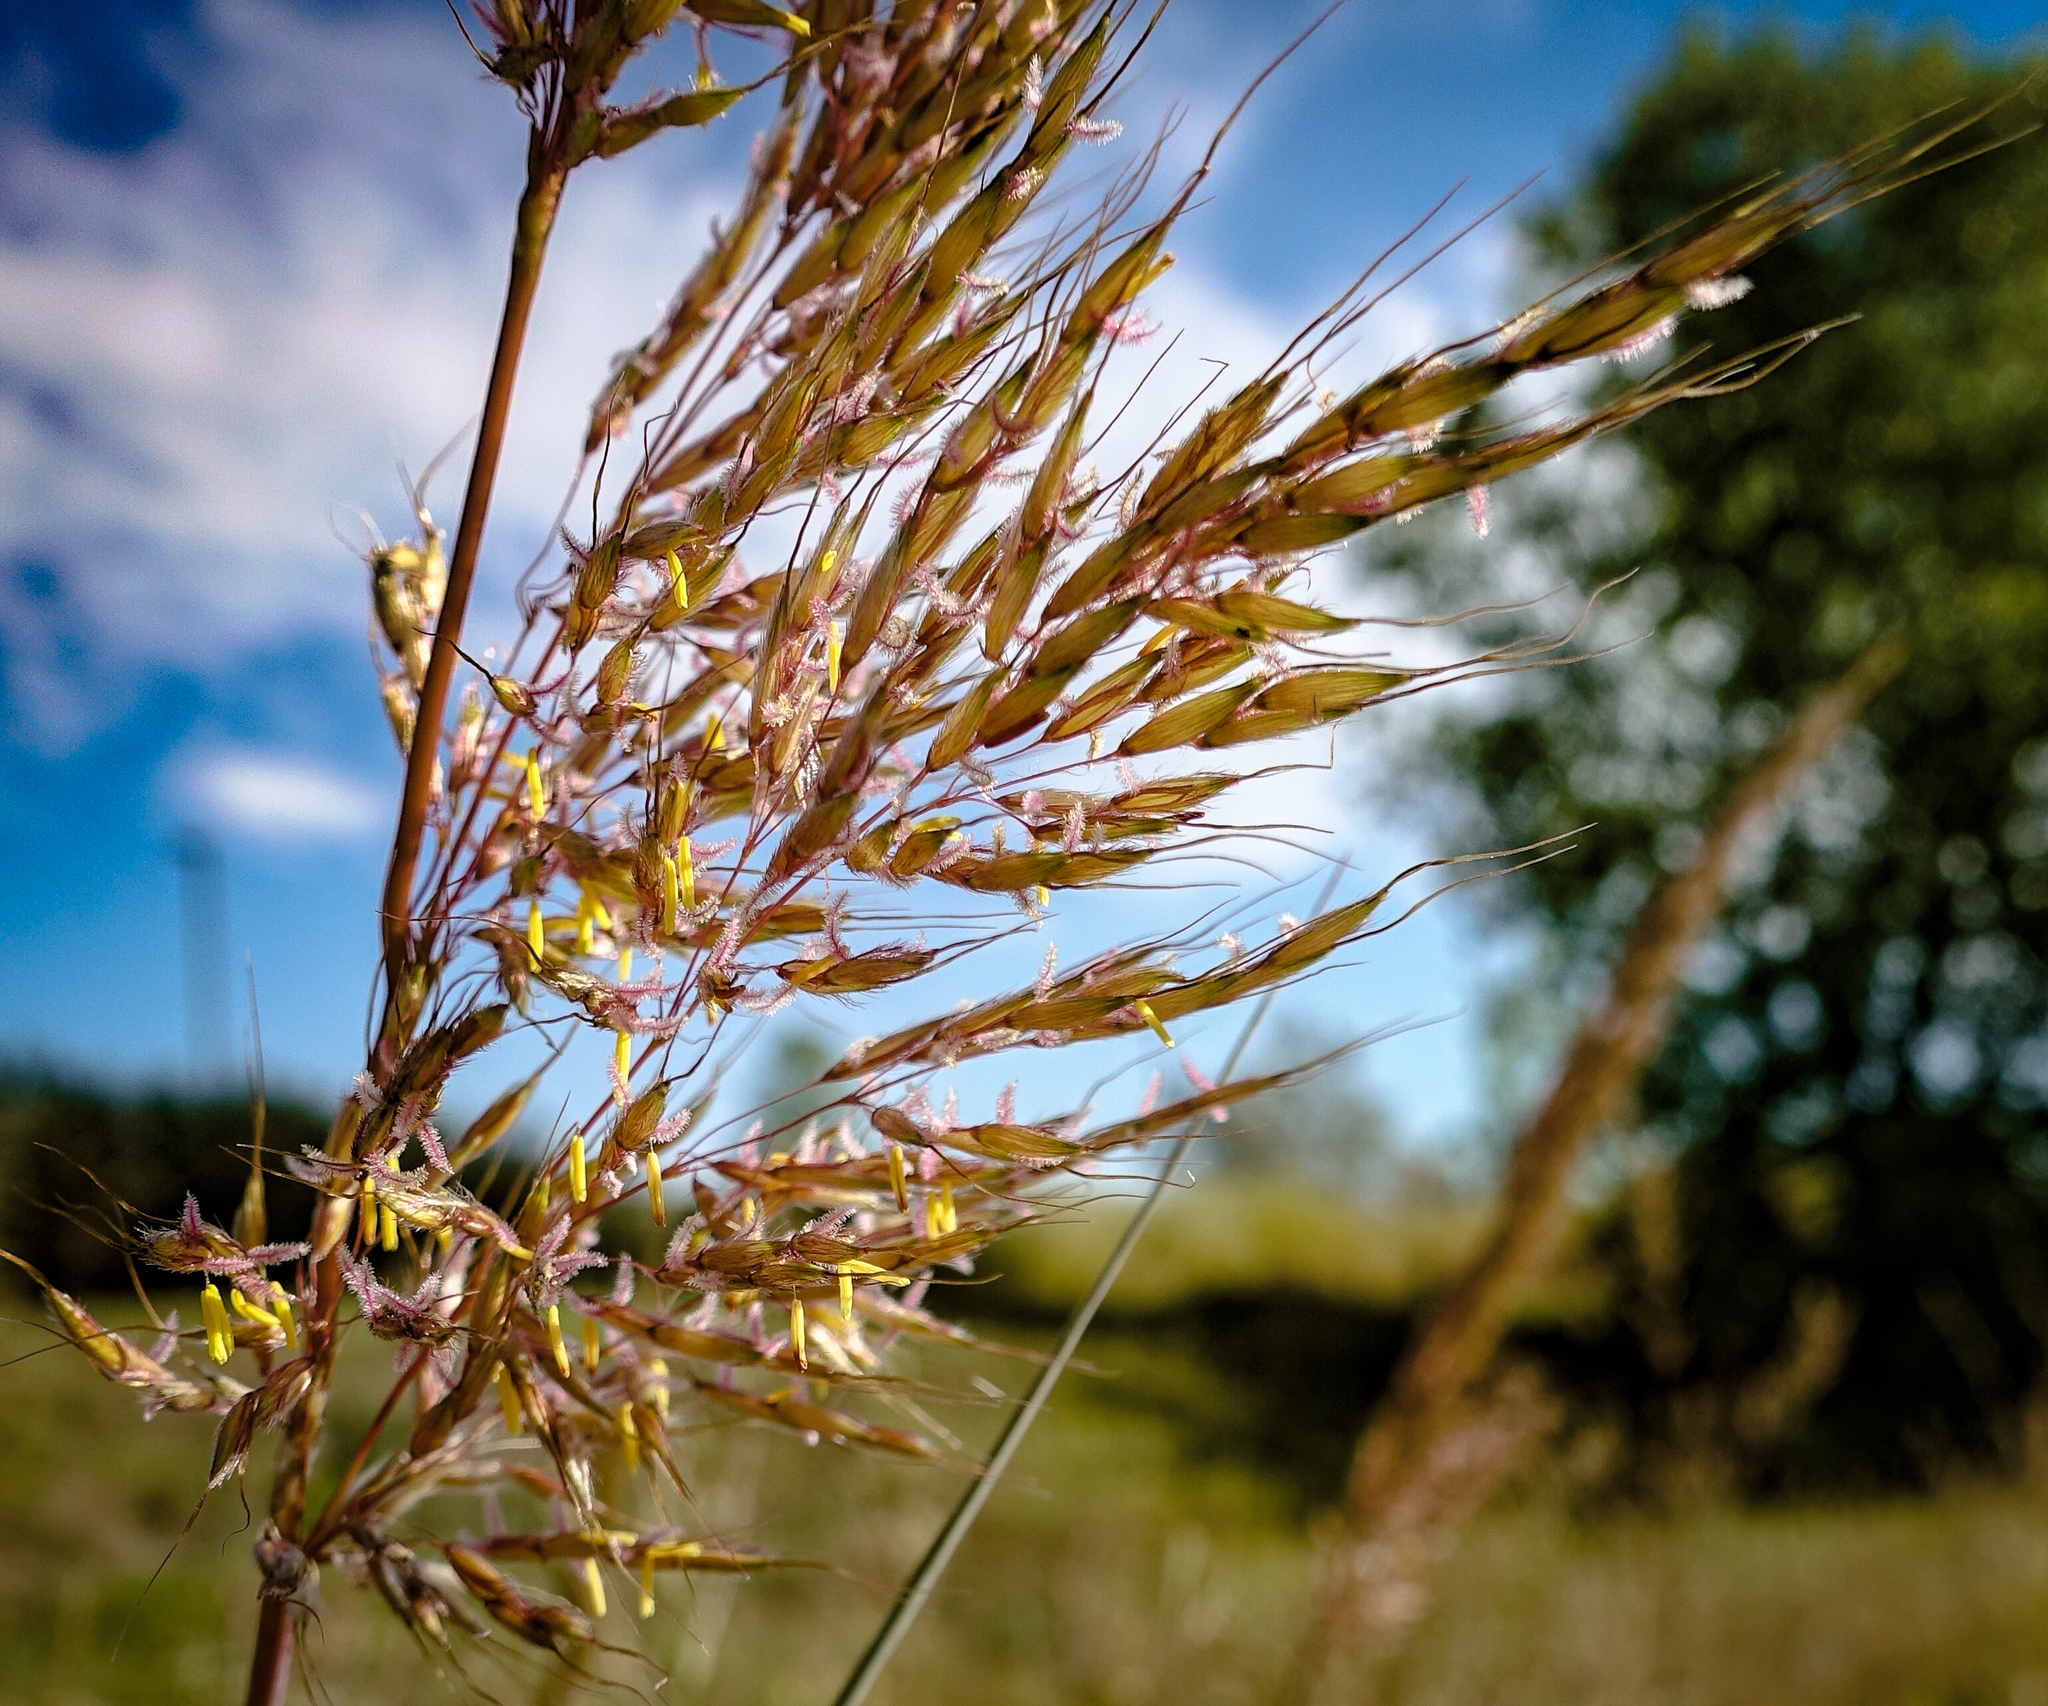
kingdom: Plantae
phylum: Tracheophyta
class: Liliopsida
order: Poales
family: Poaceae
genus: Sorghastrum
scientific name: Sorghastrum nutans
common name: Indian grass
